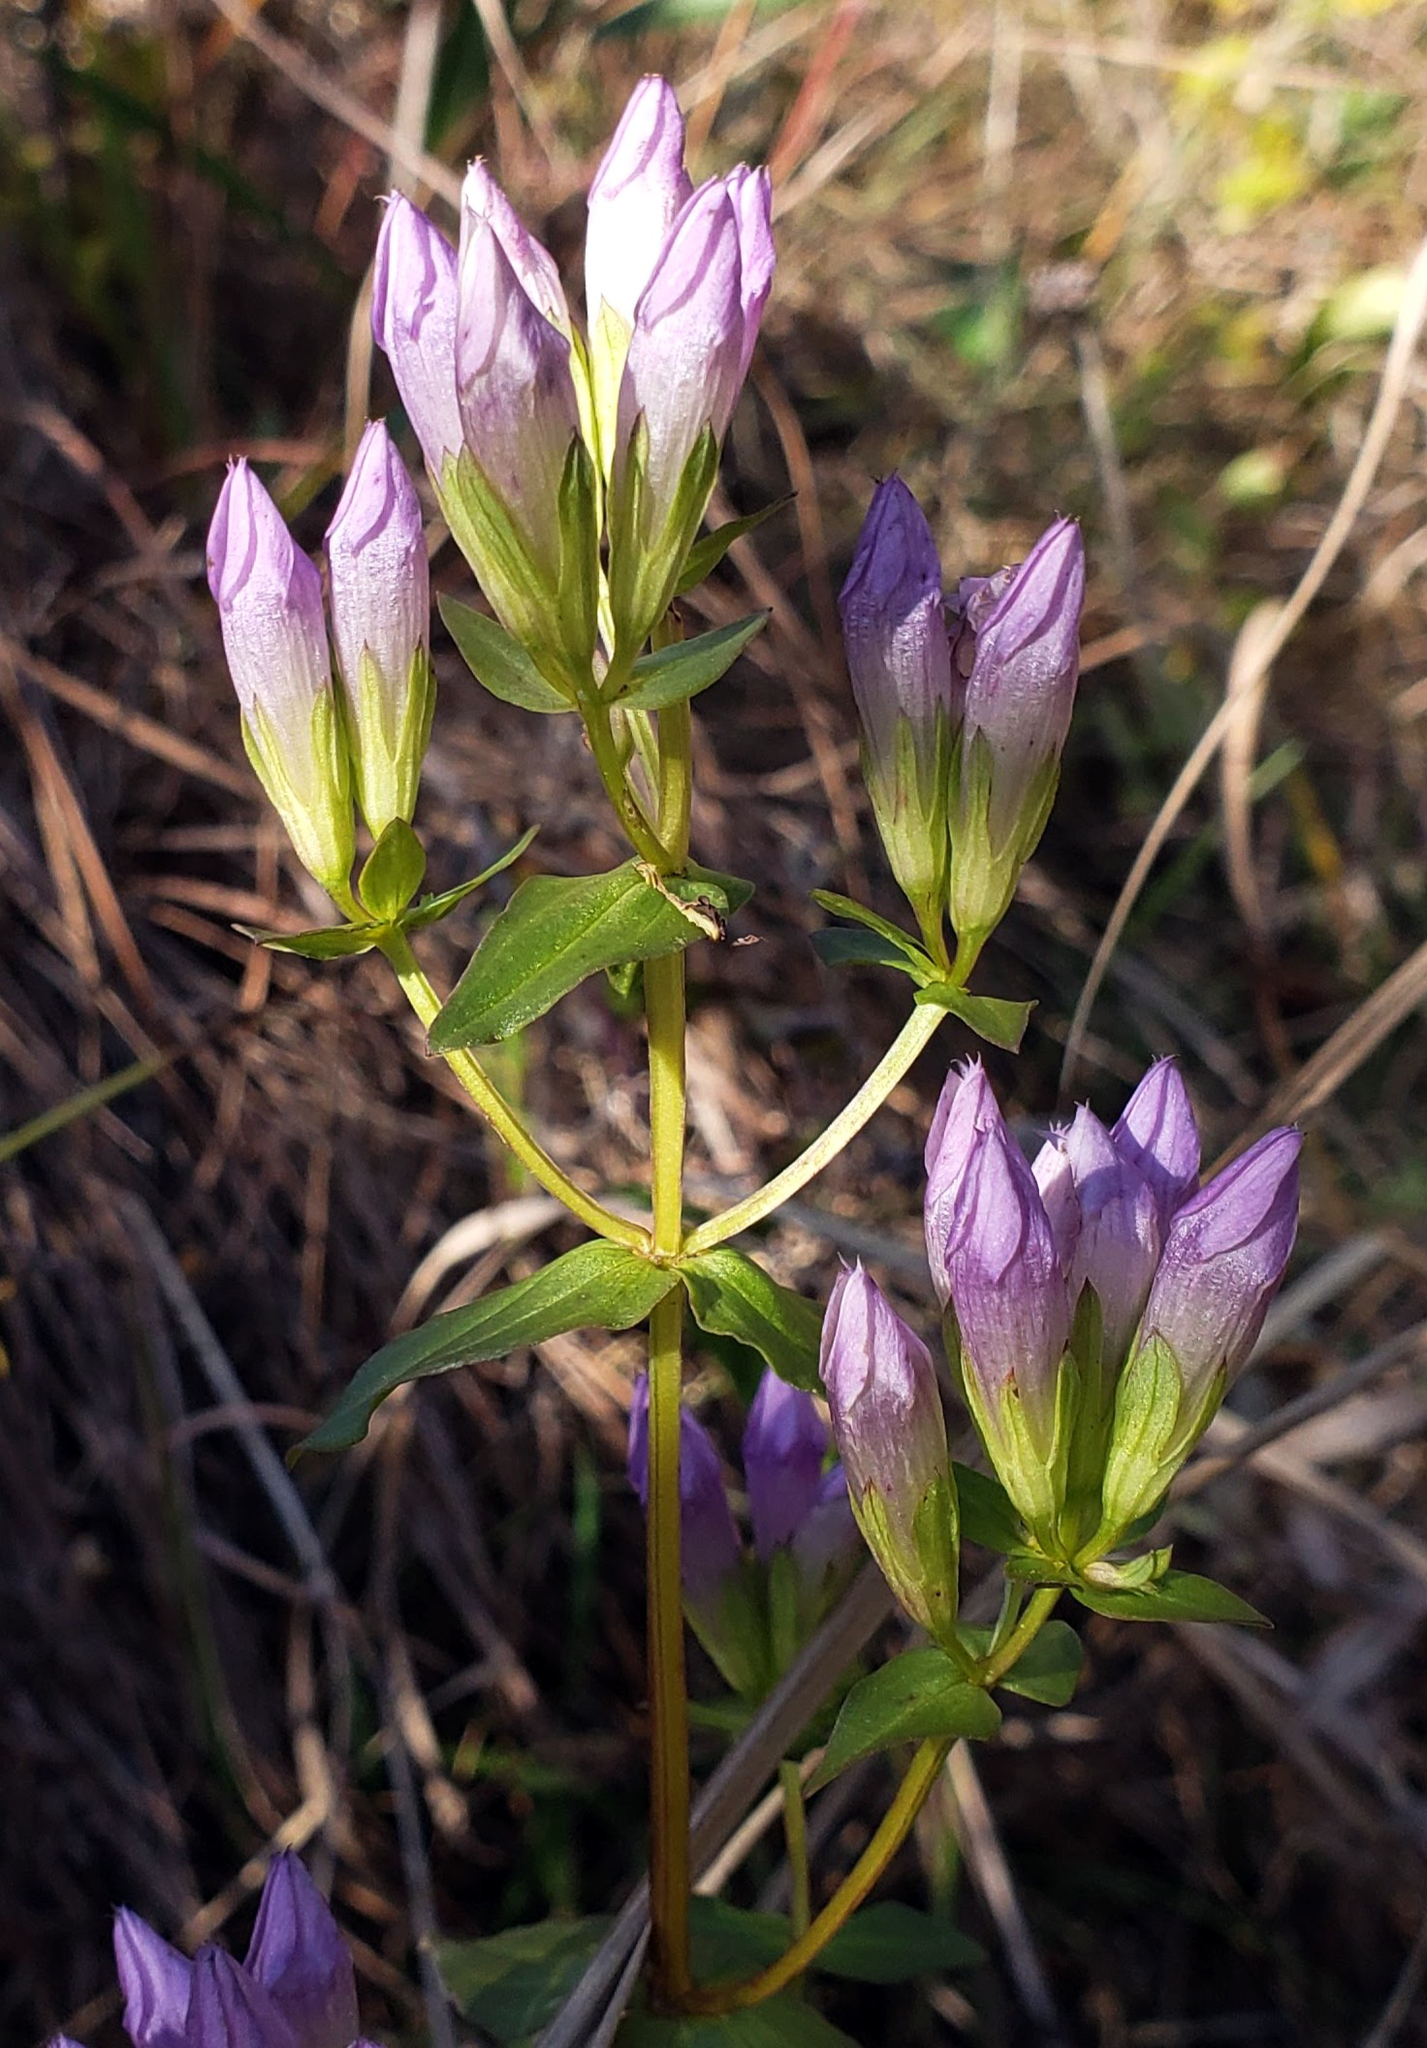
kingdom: Plantae
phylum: Tracheophyta
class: Magnoliopsida
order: Gentianales
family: Gentianaceae
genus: Gentianella
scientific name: Gentianella quinquefolia
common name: Agueweed
